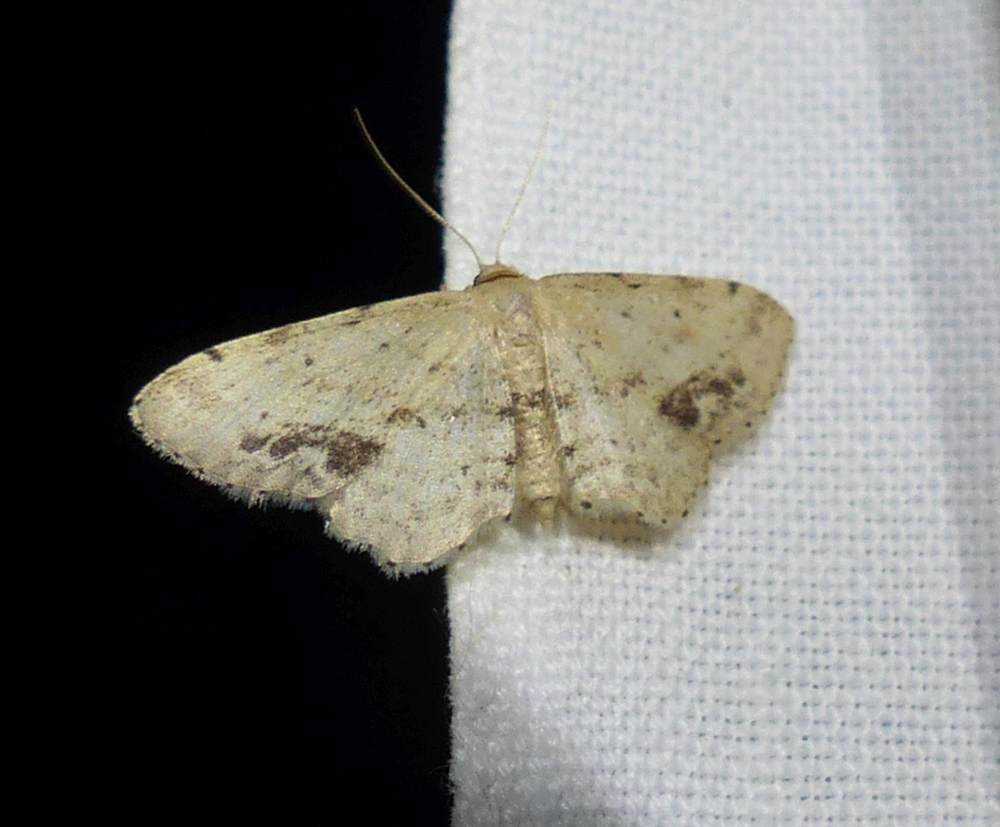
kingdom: Animalia
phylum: Arthropoda
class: Insecta
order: Lepidoptera
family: Geometridae
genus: Idaea
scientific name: Idaea dimidiata
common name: Single-dotted wave
